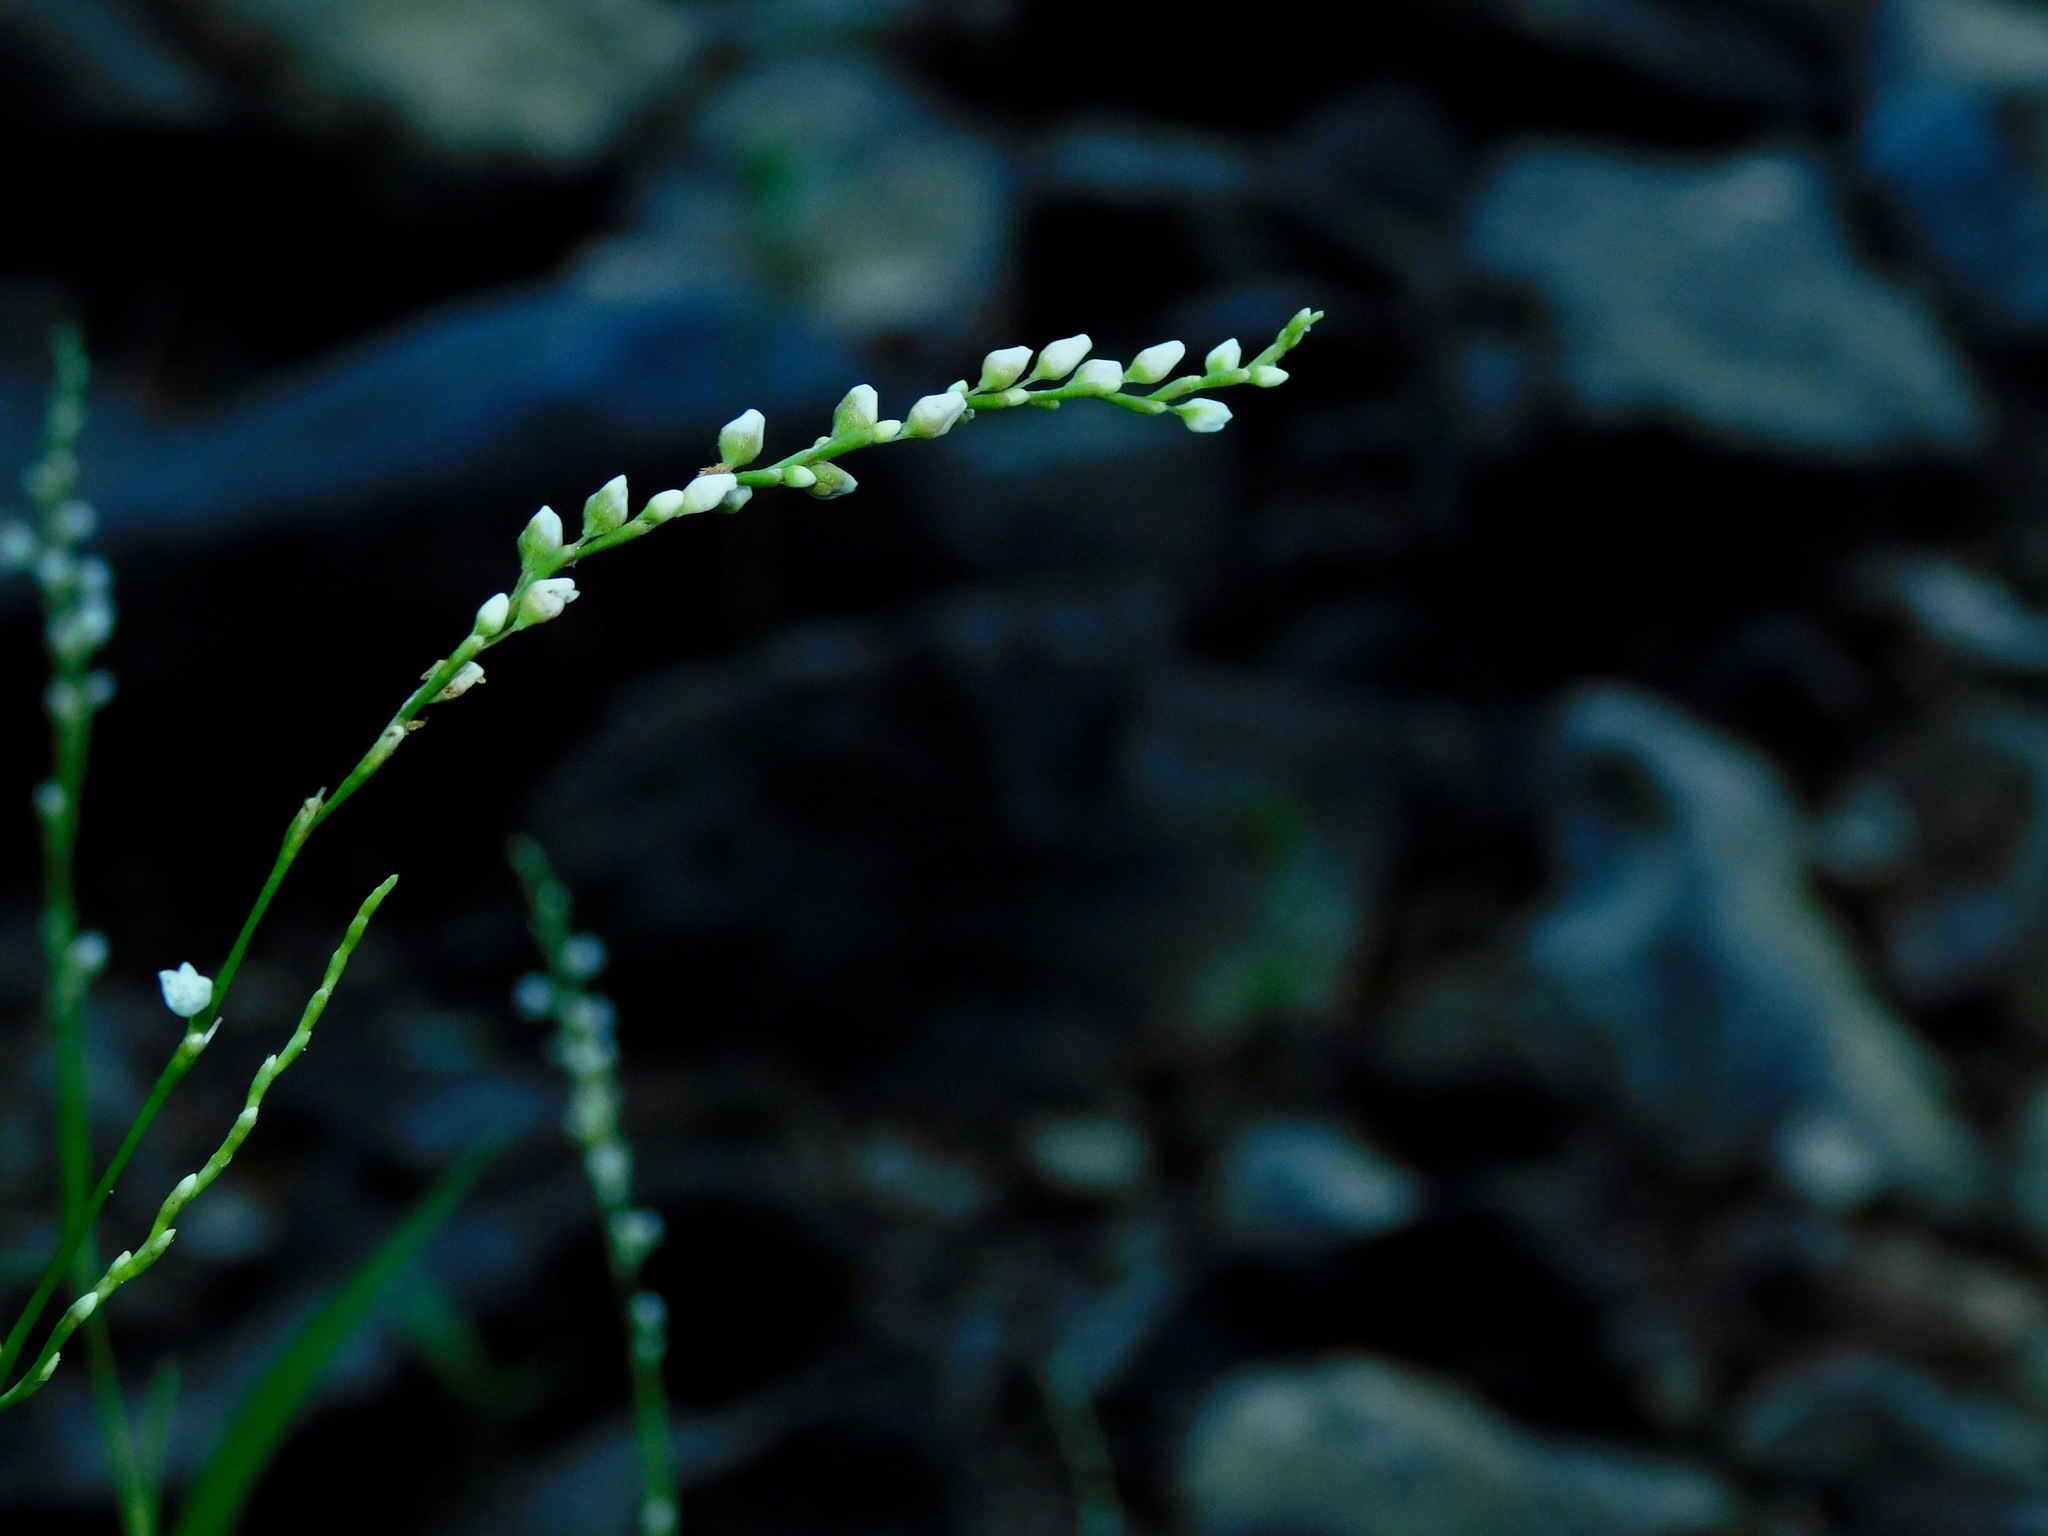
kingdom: Plantae
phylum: Tracheophyta
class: Magnoliopsida
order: Caryophyllales
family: Polygonaceae
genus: Persicaria
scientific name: Persicaria punctata
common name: Dotted smartweed
